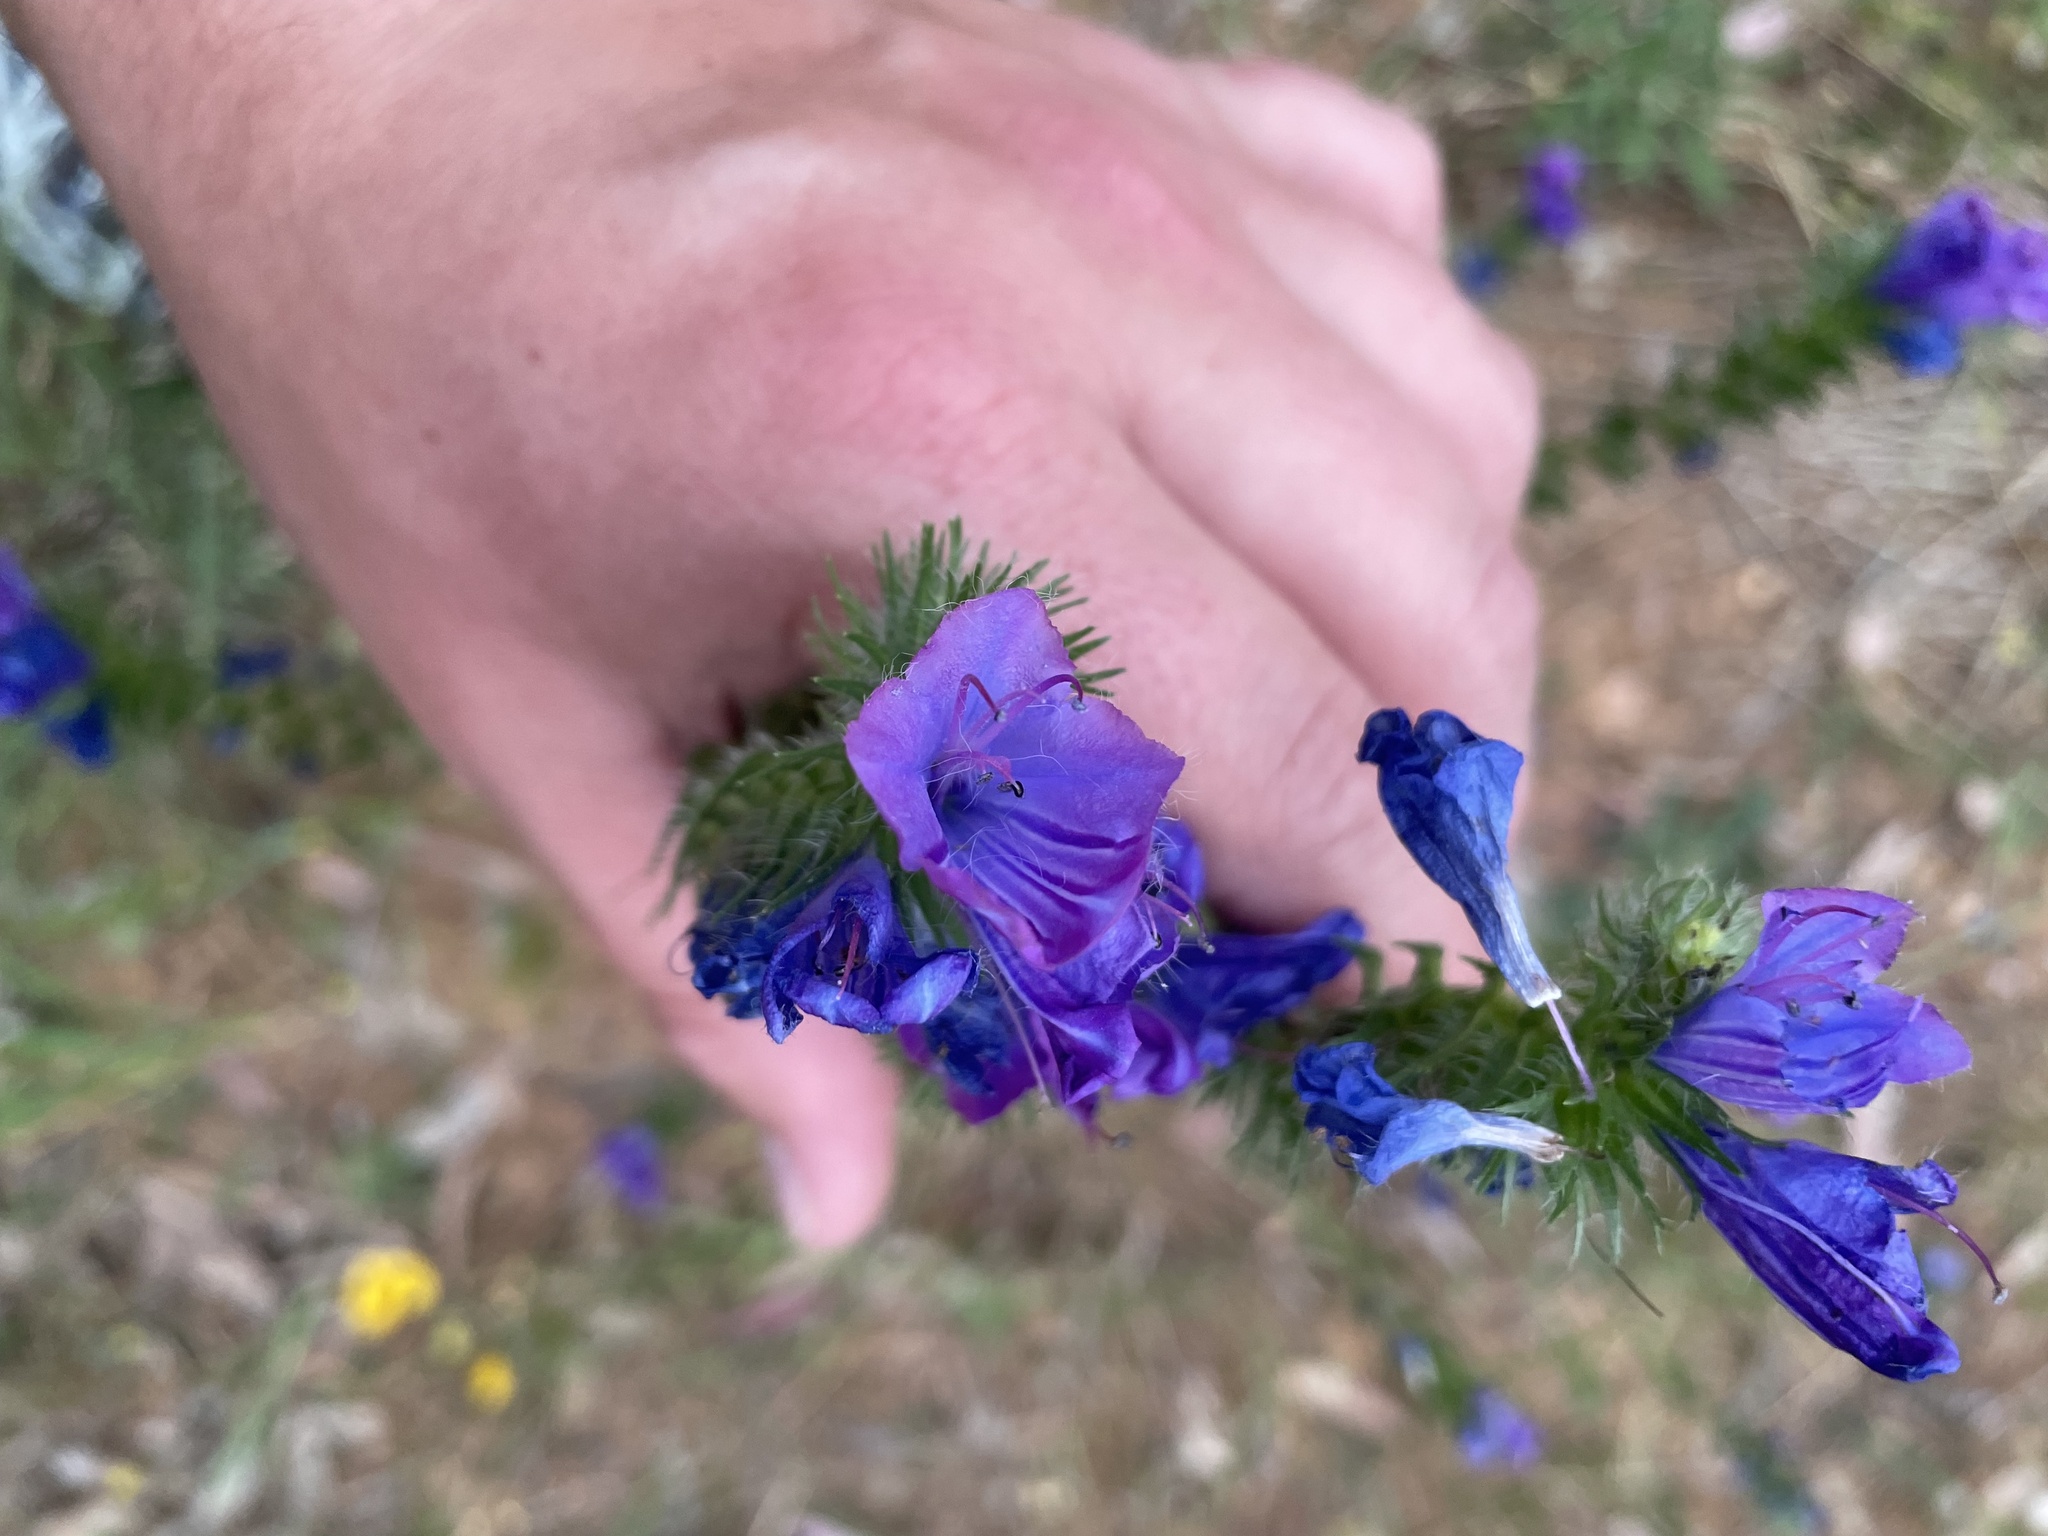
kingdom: Plantae
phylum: Tracheophyta
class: Magnoliopsida
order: Boraginales
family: Boraginaceae
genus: Echium
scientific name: Echium plantagineum
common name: Purple viper's-bugloss
